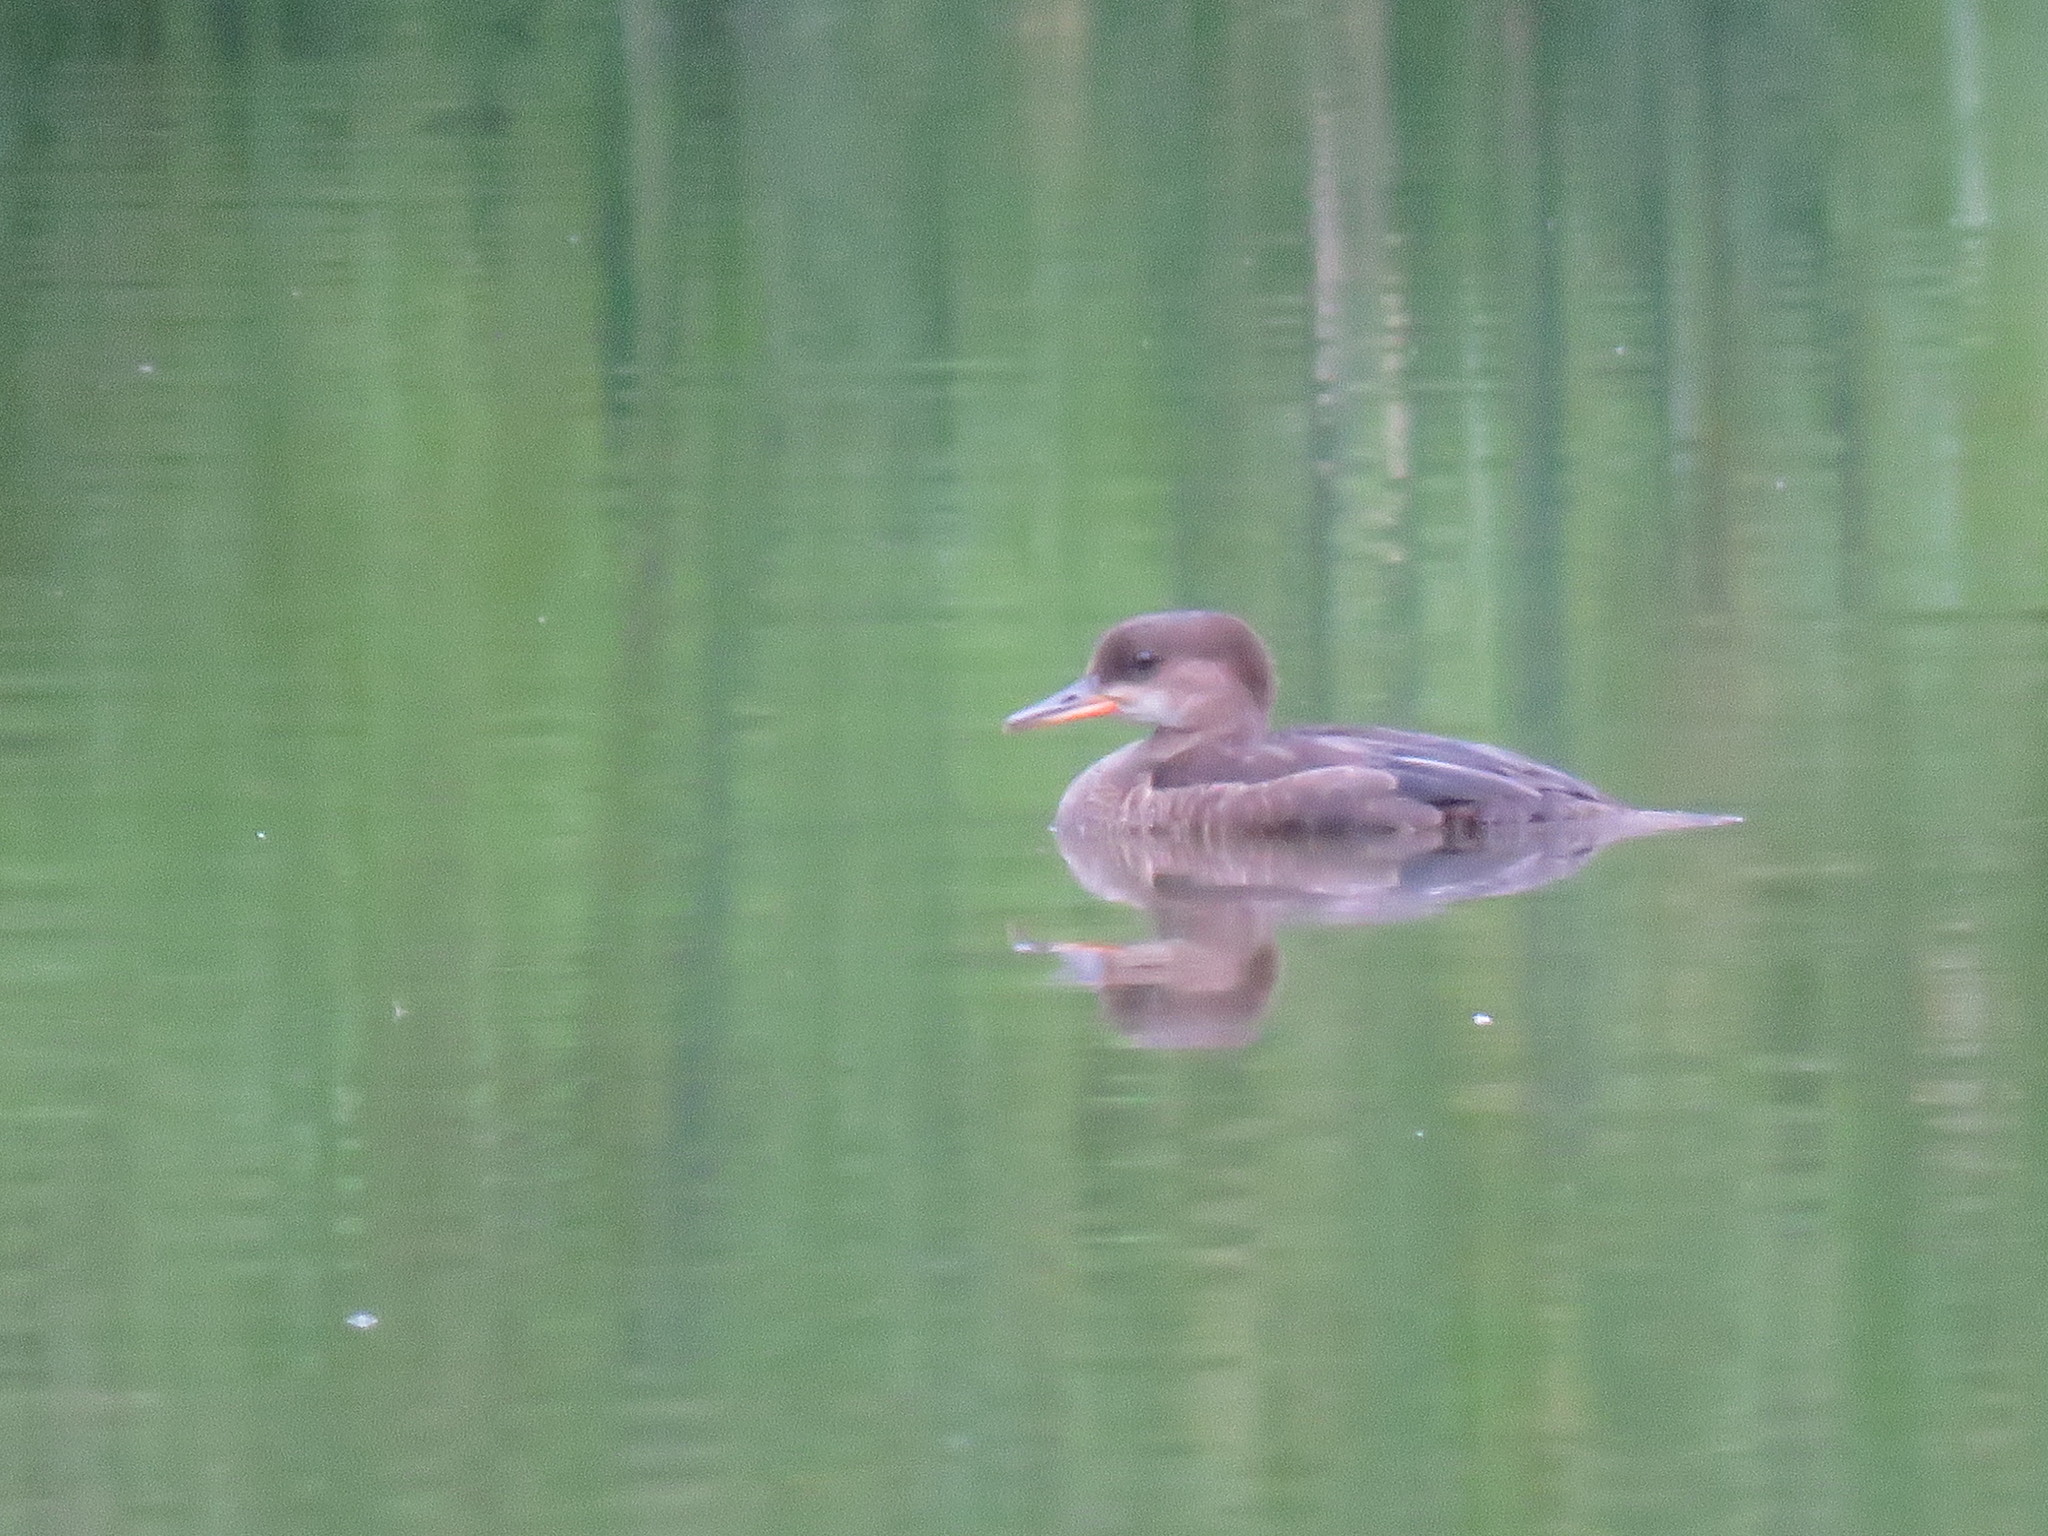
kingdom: Animalia
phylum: Chordata
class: Aves
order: Anseriformes
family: Anatidae
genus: Lophodytes
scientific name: Lophodytes cucullatus
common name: Hooded merganser
